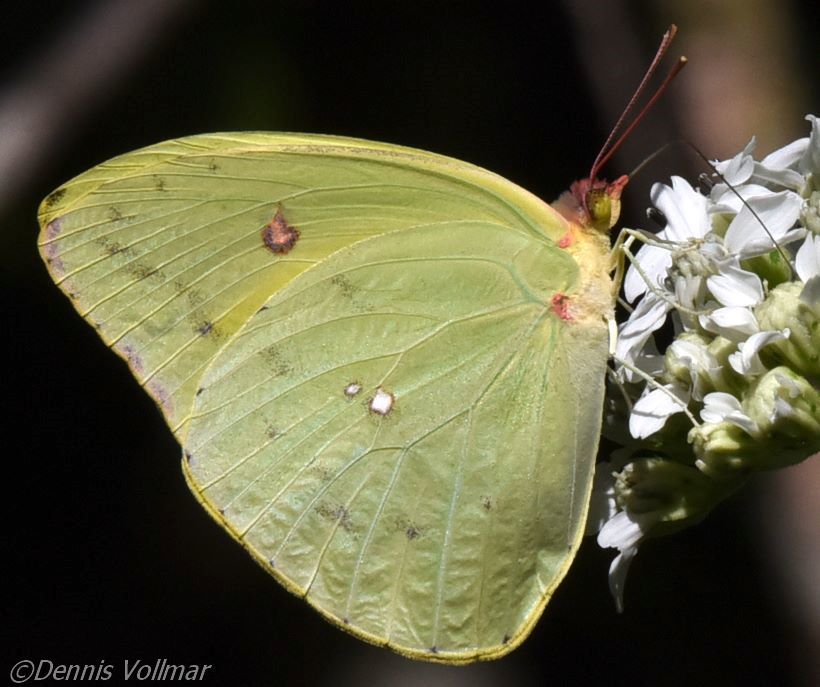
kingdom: Animalia
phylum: Arthropoda
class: Insecta
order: Lepidoptera
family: Pieridae
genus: Aphrissa
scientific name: Aphrissa neleis
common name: Pink-spot sulphur
